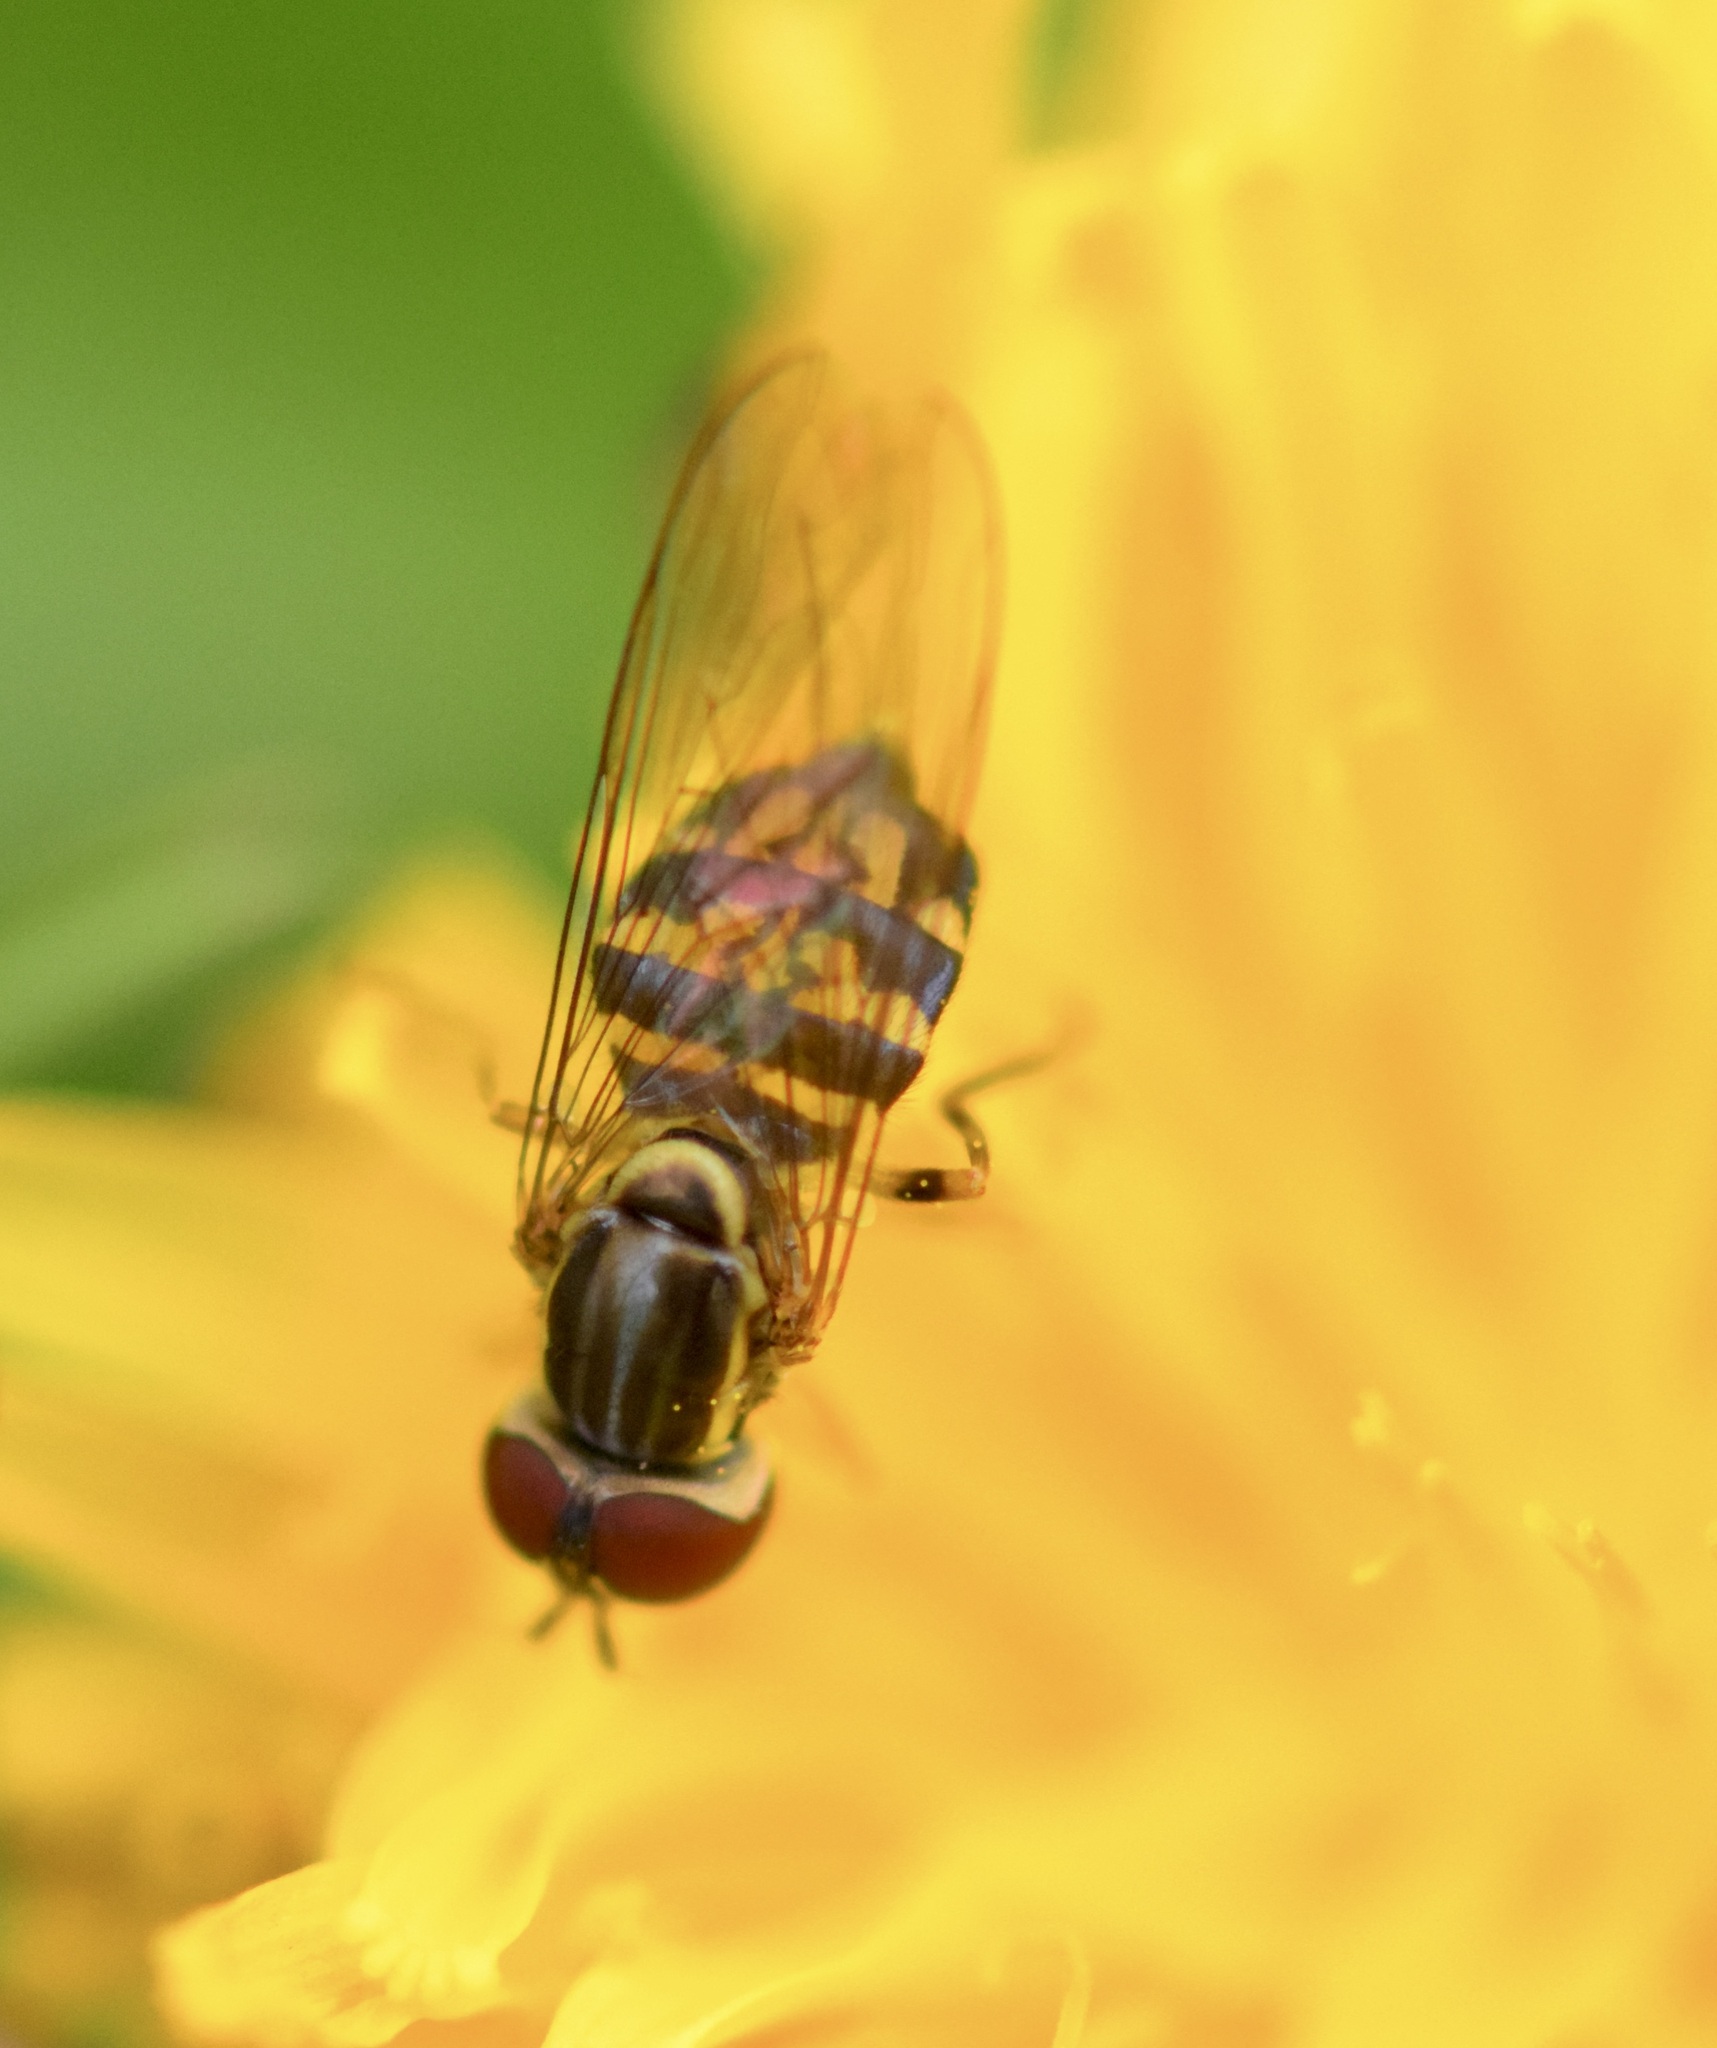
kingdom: Animalia
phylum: Arthropoda
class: Insecta
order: Diptera
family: Syrphidae
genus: Toxomerus
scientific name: Toxomerus geminatus
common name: Eastern calligrapher
